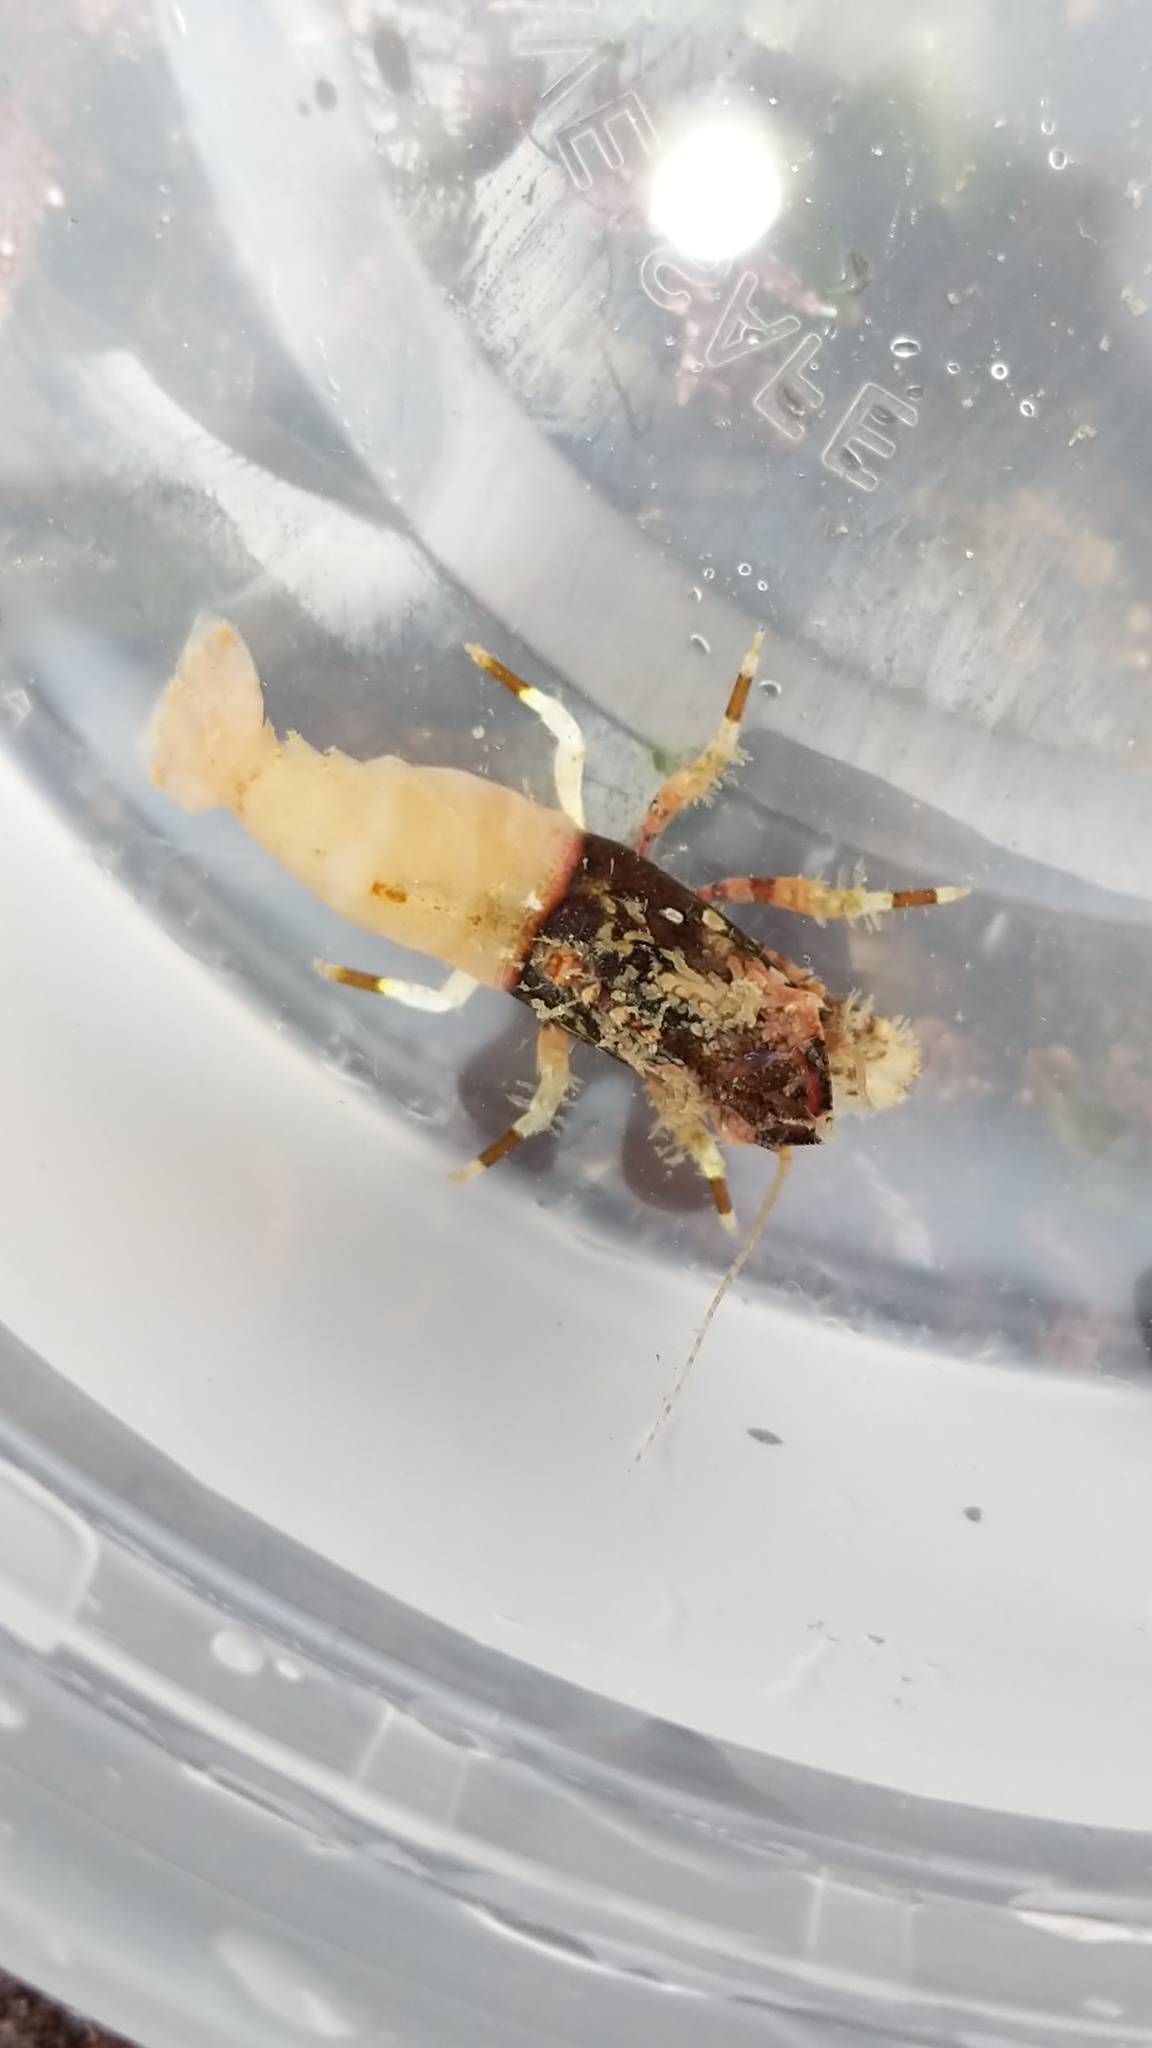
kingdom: Animalia
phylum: Arthropoda
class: Malacostraca
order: Decapoda
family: Thoridae
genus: Spirontocaris
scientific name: Spirontocaris prionota
